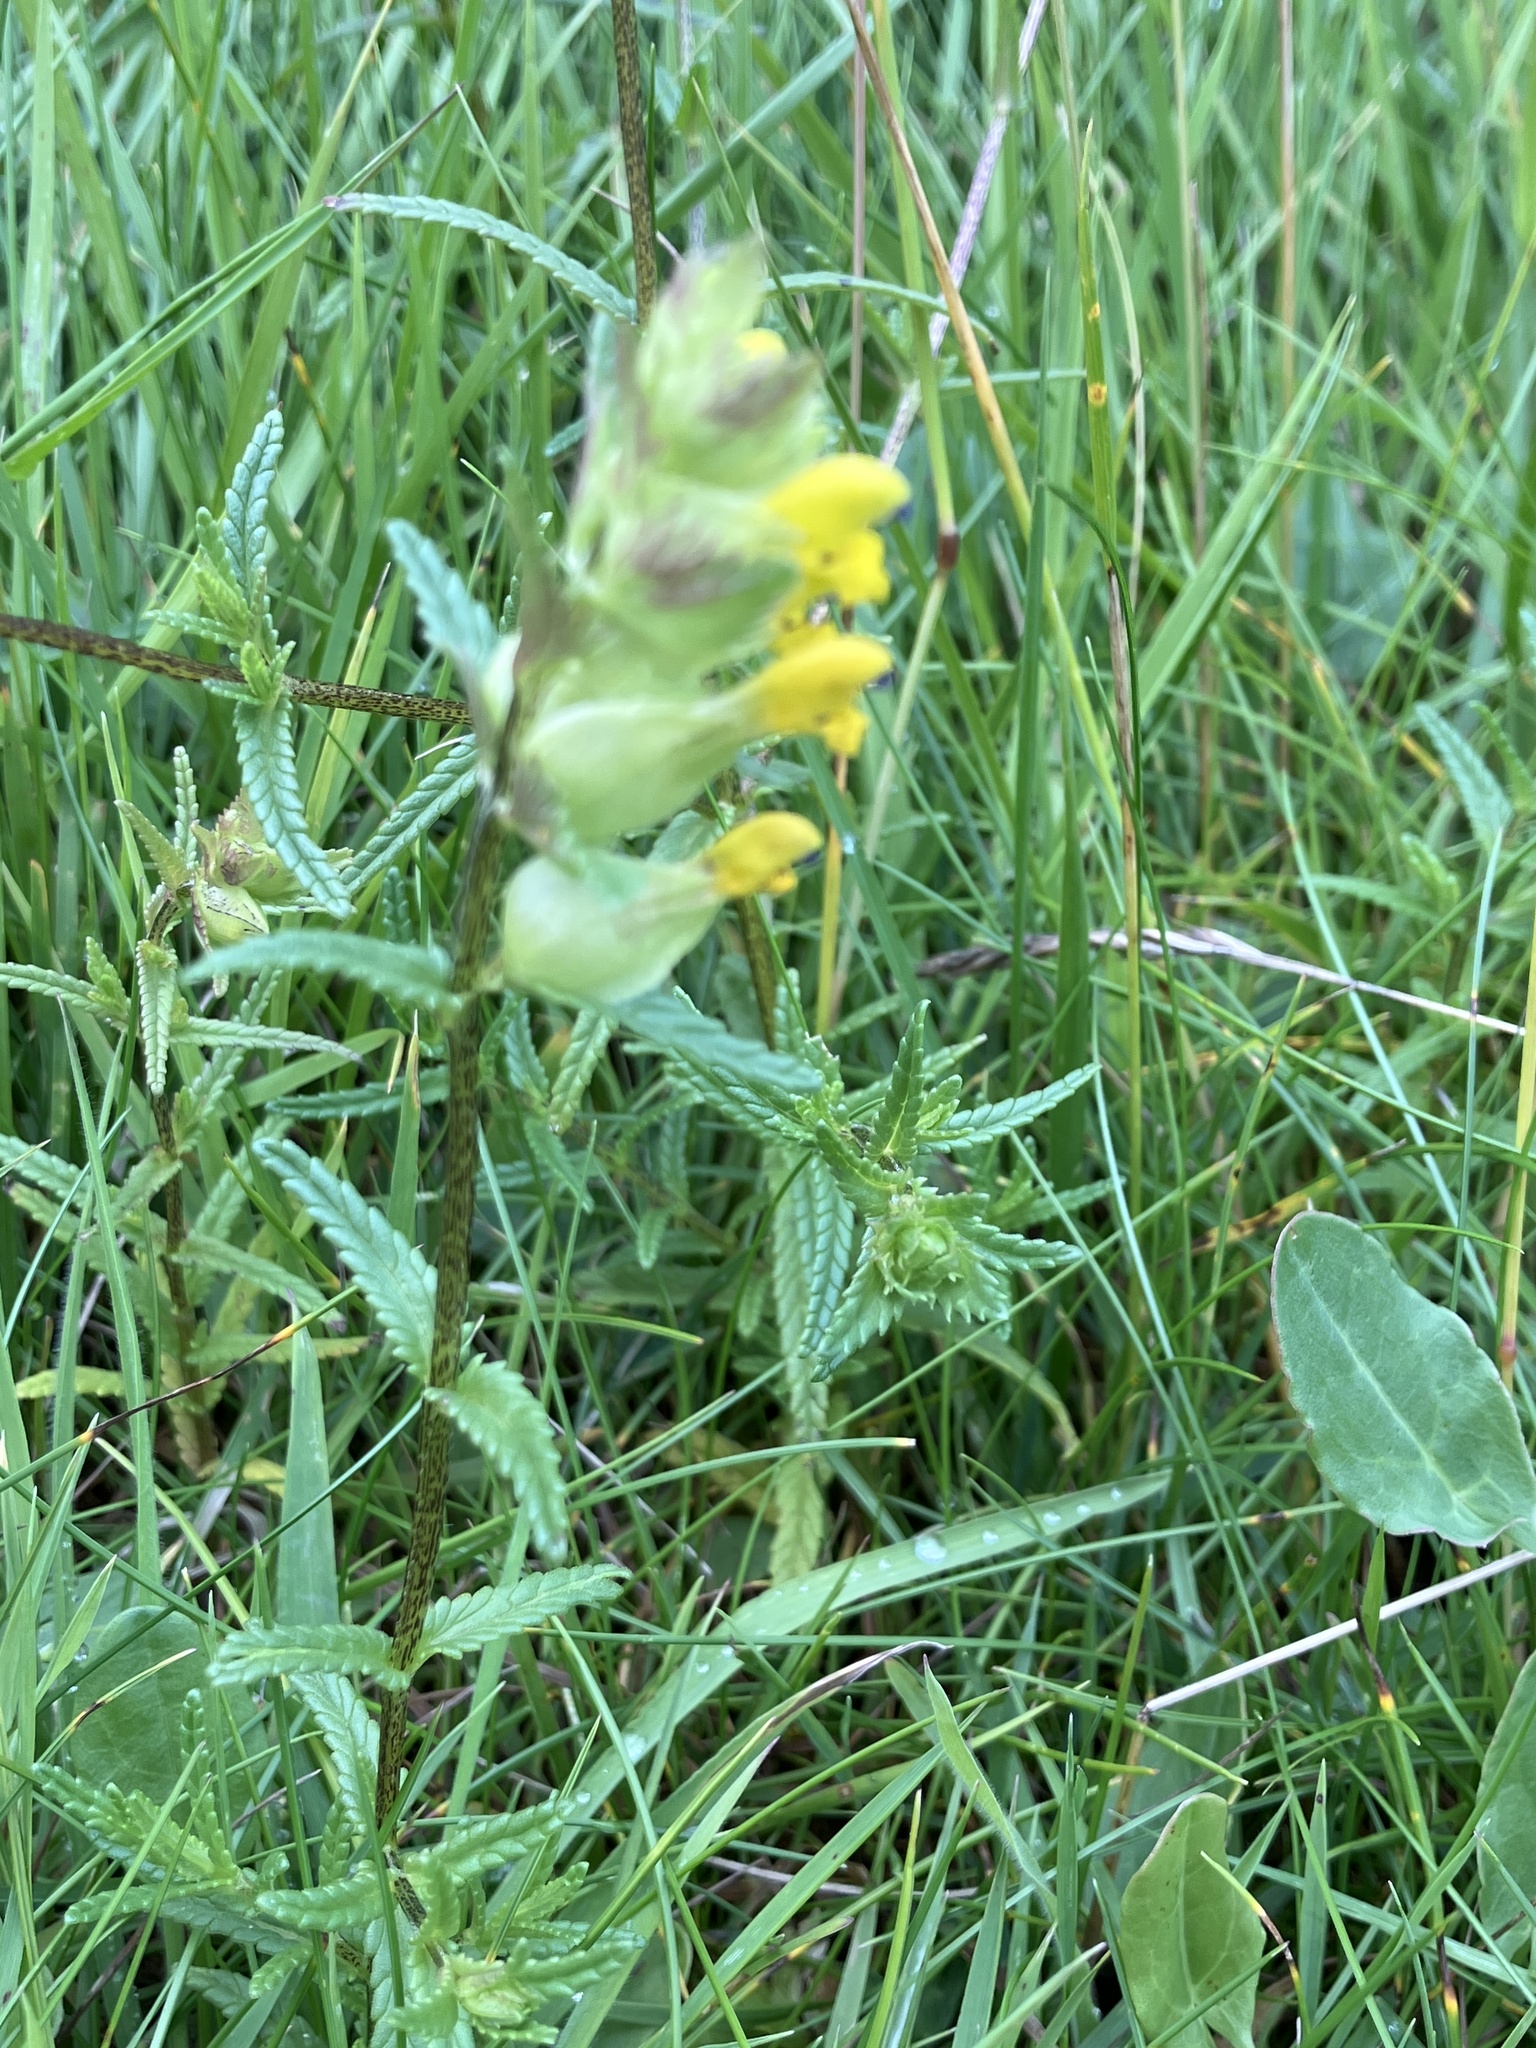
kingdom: Plantae
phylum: Tracheophyta
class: Magnoliopsida
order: Lamiales
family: Orobanchaceae
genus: Rhinanthus
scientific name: Rhinanthus minor
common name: Yellow-rattle
